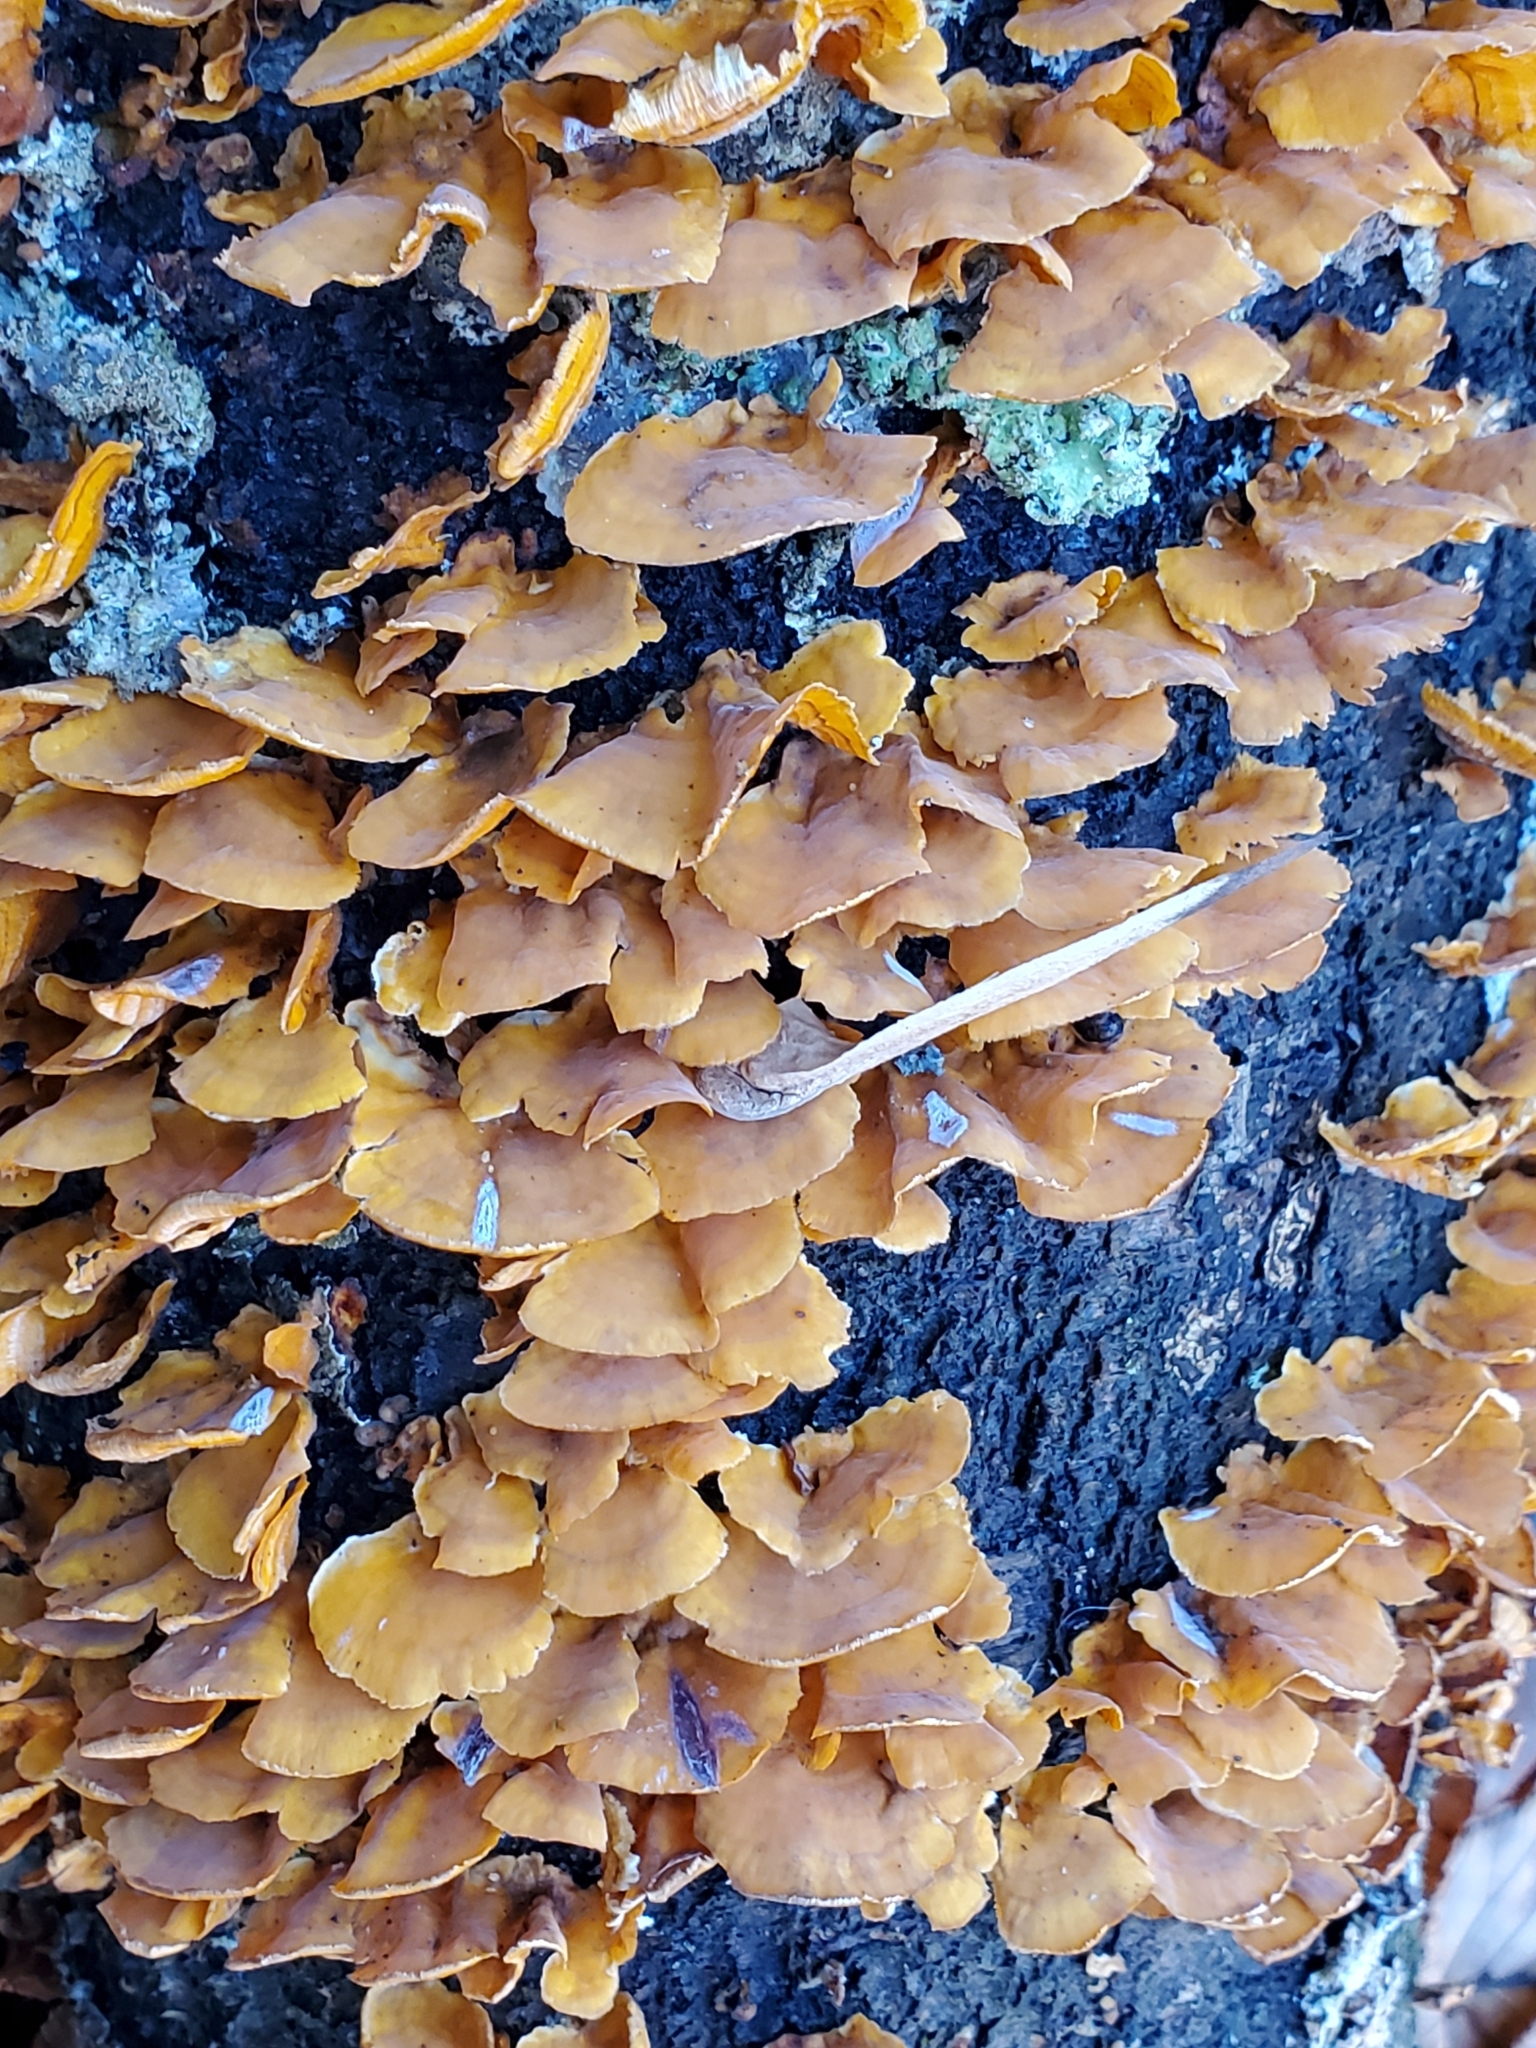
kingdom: Fungi
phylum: Basidiomycota
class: Agaricomycetes
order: Russulales
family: Stereaceae
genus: Stereum
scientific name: Stereum complicatum
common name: Crowded parchment
